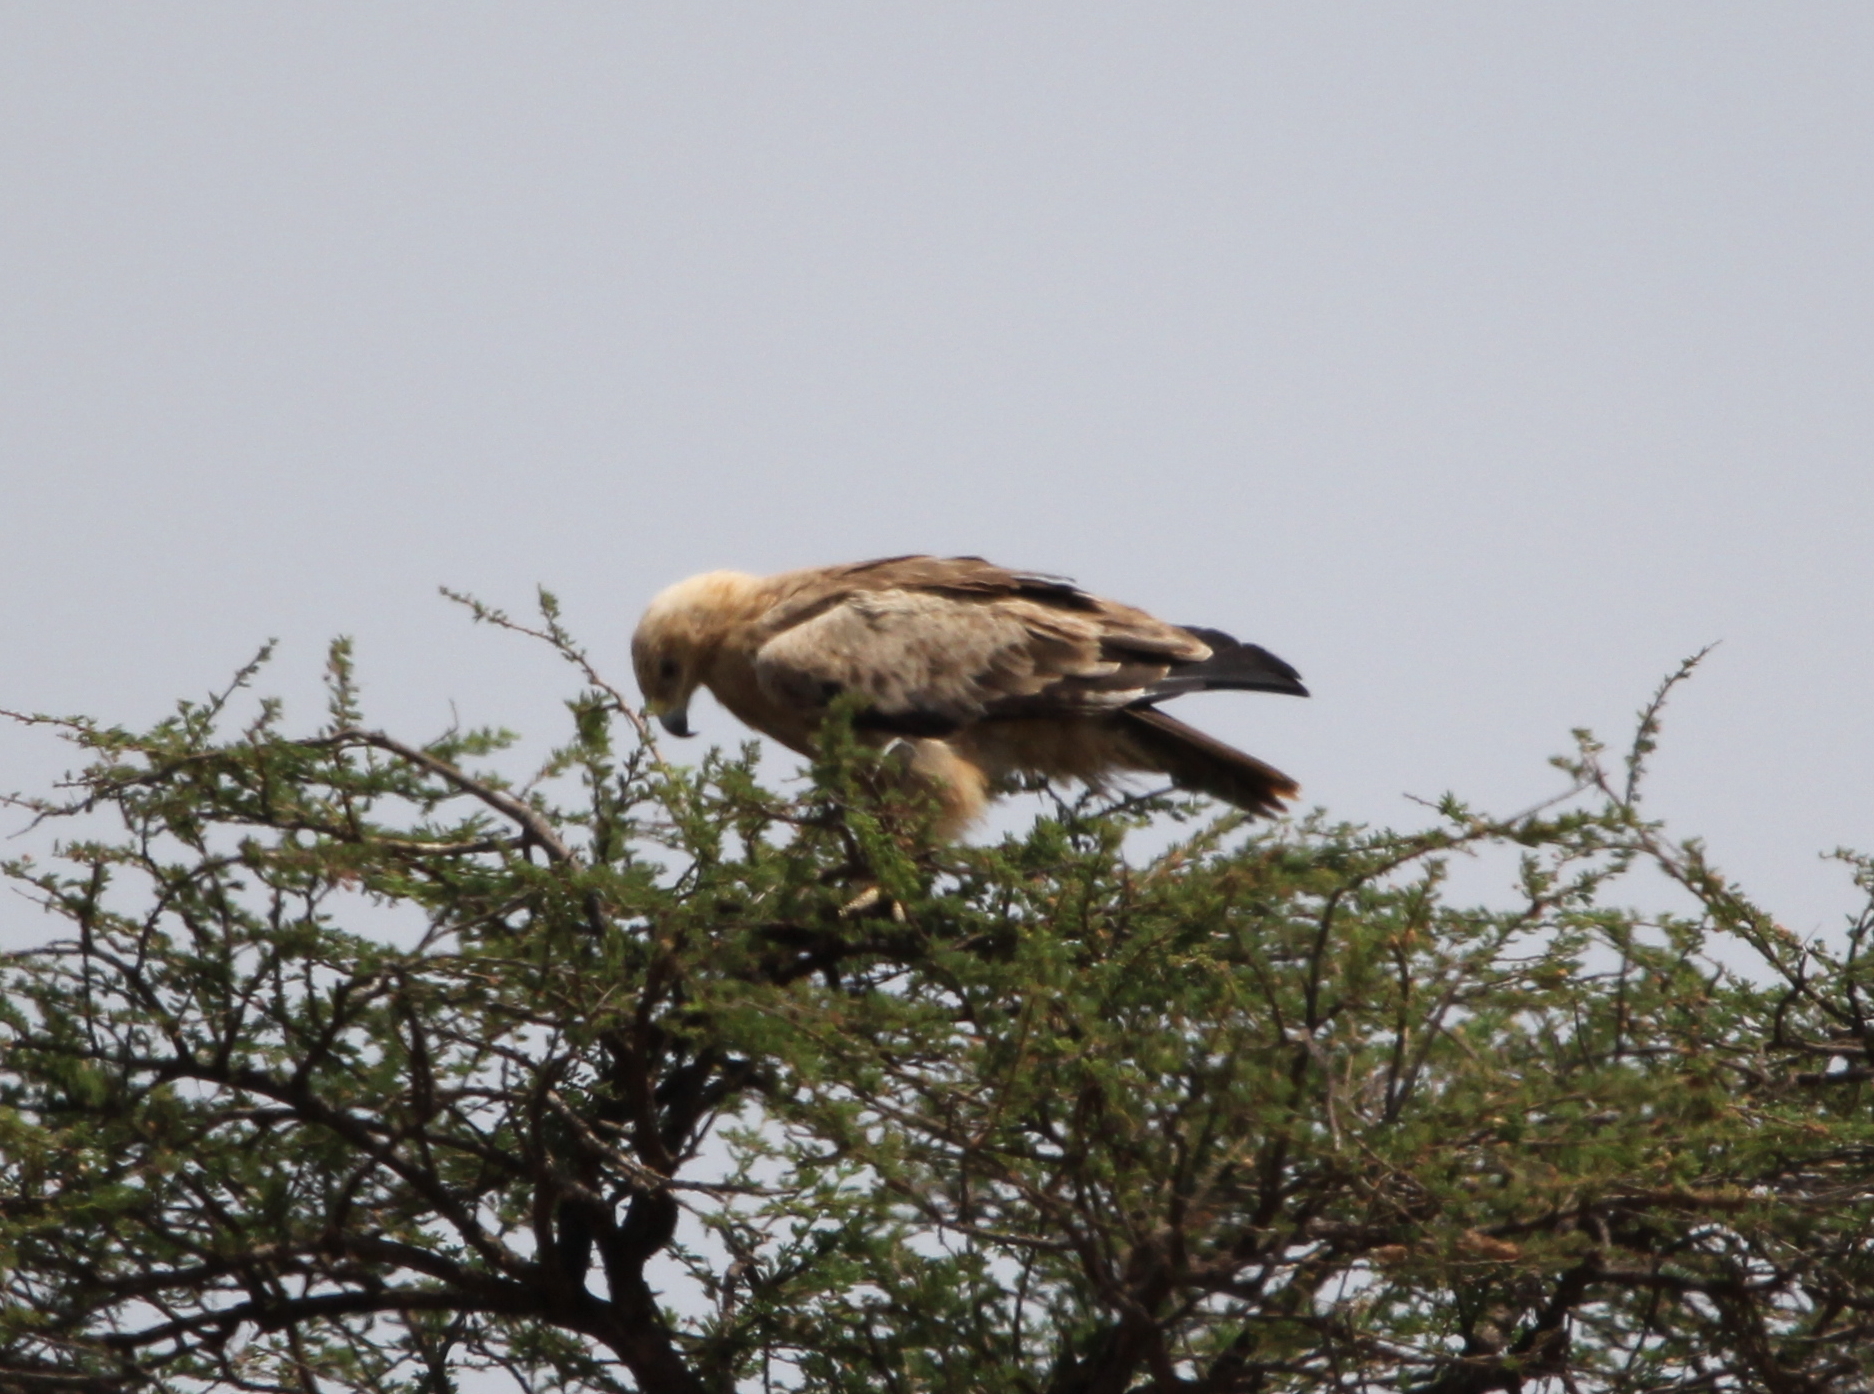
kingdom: Animalia
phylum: Chordata
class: Aves
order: Accipitriformes
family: Accipitridae
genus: Aquila
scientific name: Aquila rapax
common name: Tawny eagle
